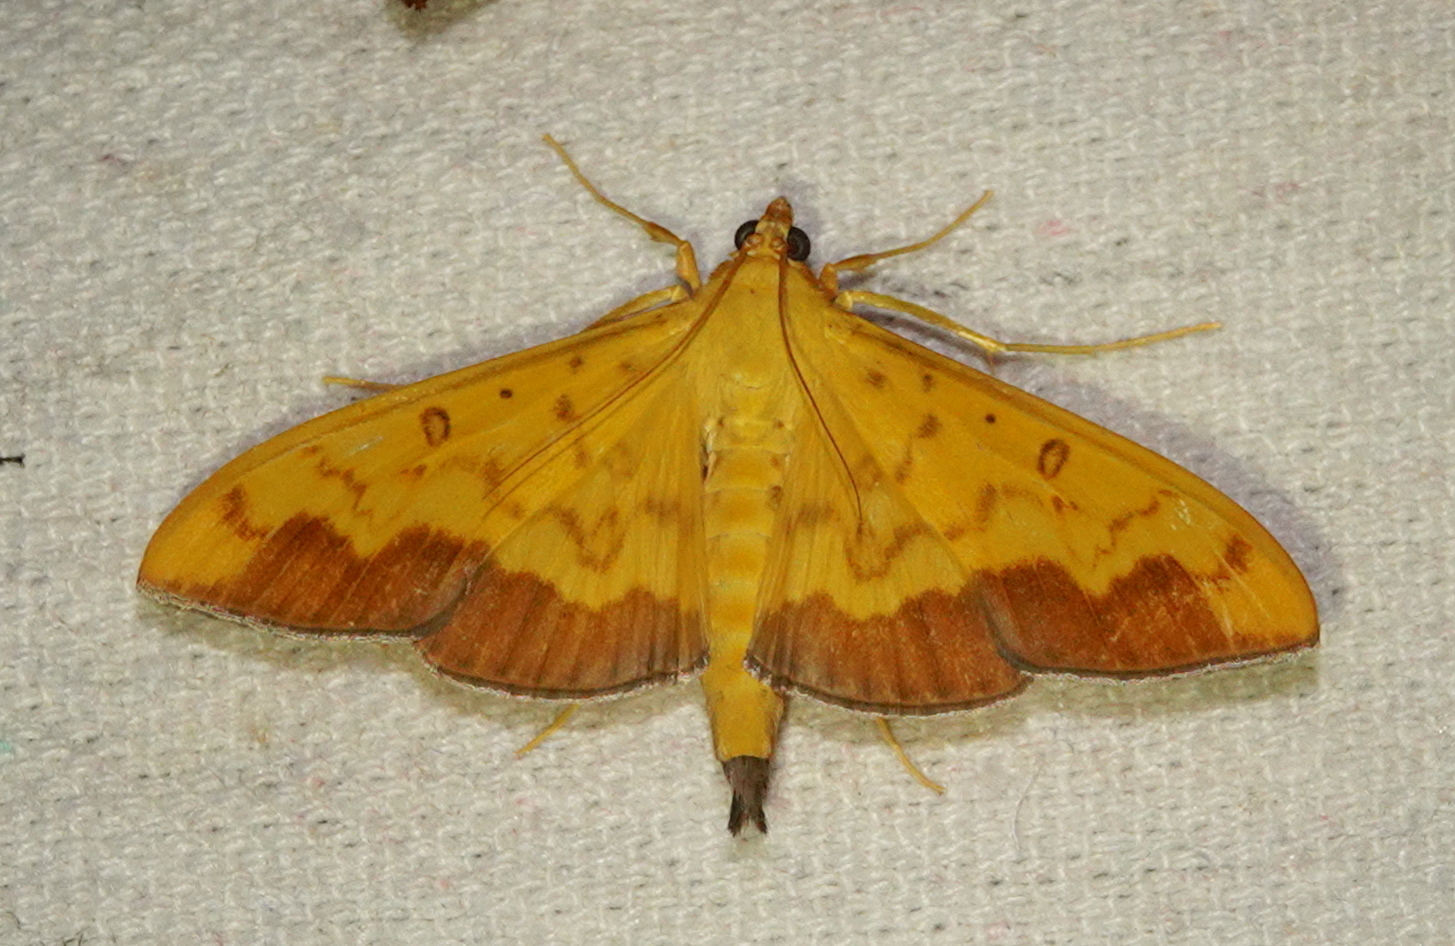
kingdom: Animalia
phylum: Arthropoda
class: Insecta
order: Lepidoptera
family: Crambidae
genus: Botyodes
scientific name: Botyodes asialis
